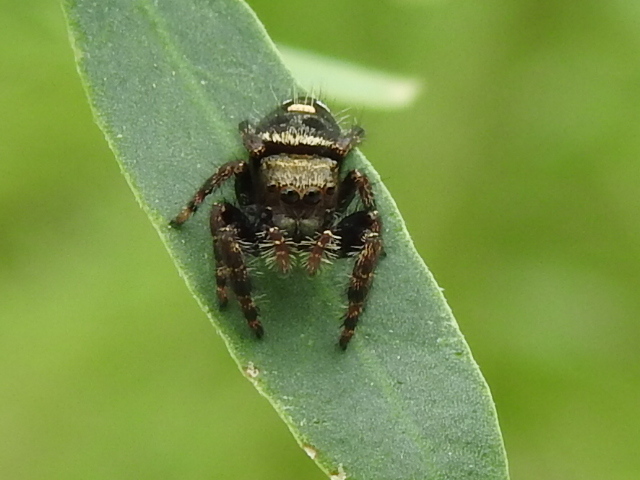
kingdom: Animalia
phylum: Arthropoda
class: Arachnida
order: Araneae
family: Salticidae
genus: Phidippus
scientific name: Phidippus audax
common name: Bold jumper
